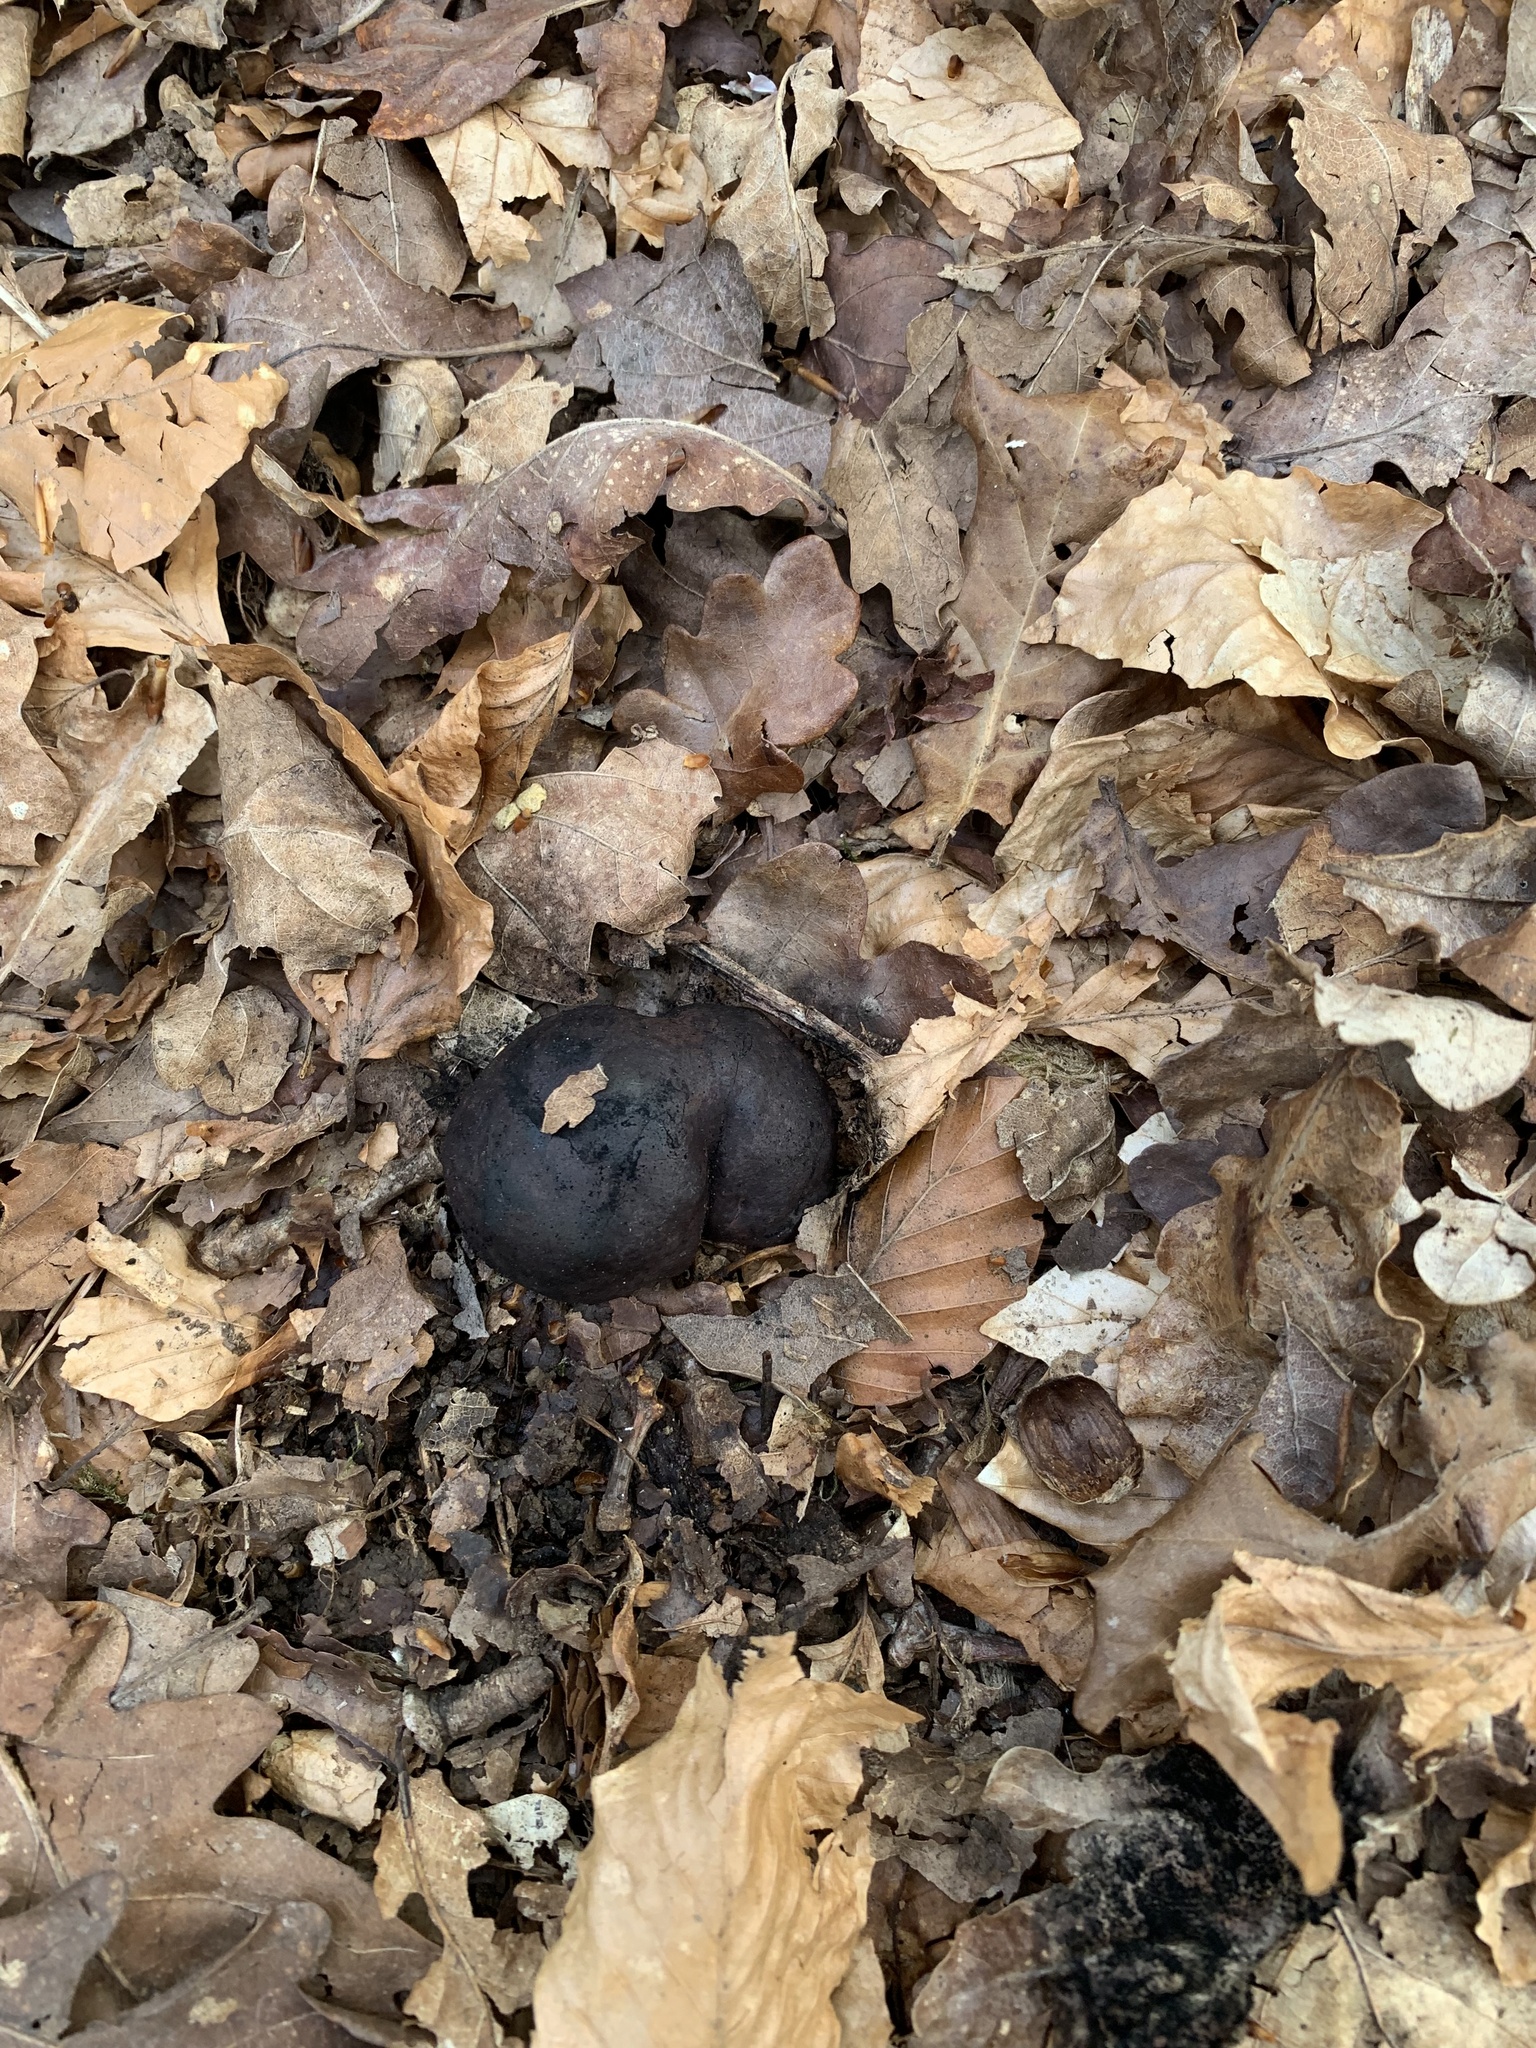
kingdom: Fungi
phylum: Ascomycota
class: Sordariomycetes
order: Xylariales
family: Hypoxylaceae
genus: Daldinia
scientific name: Daldinia concentrica
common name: Cramp balls
